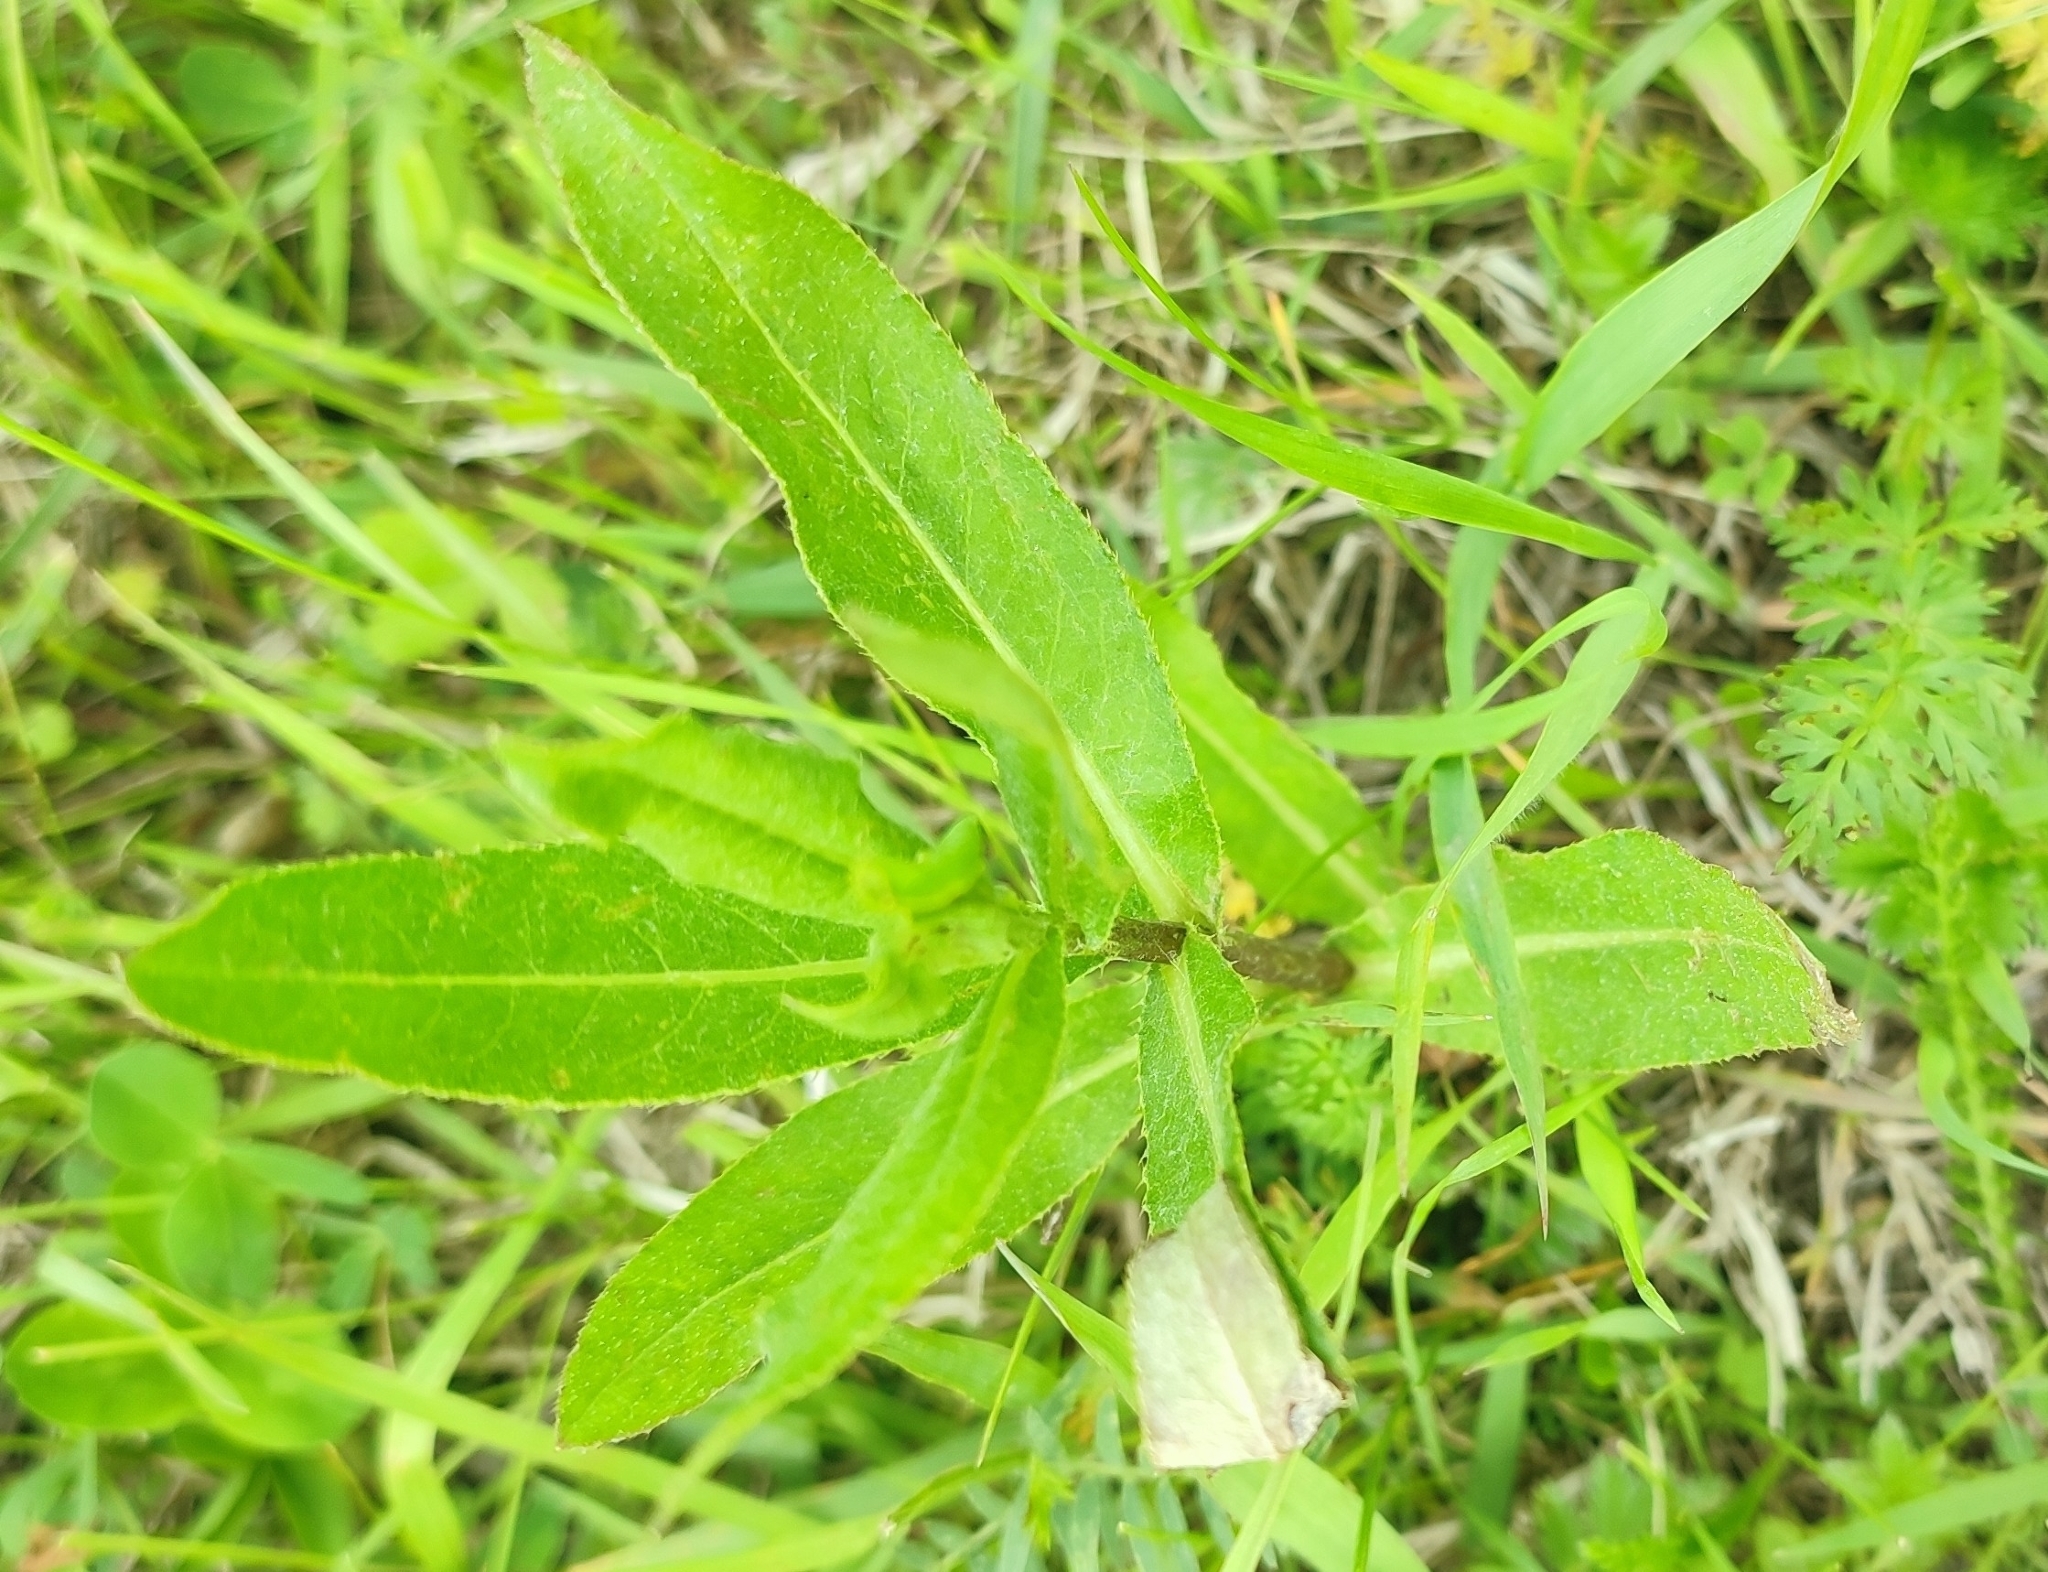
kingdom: Plantae
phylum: Tracheophyta
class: Magnoliopsida
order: Asterales
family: Asteraceae
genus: Cirsium
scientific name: Cirsium arvense
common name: Creeping thistle
